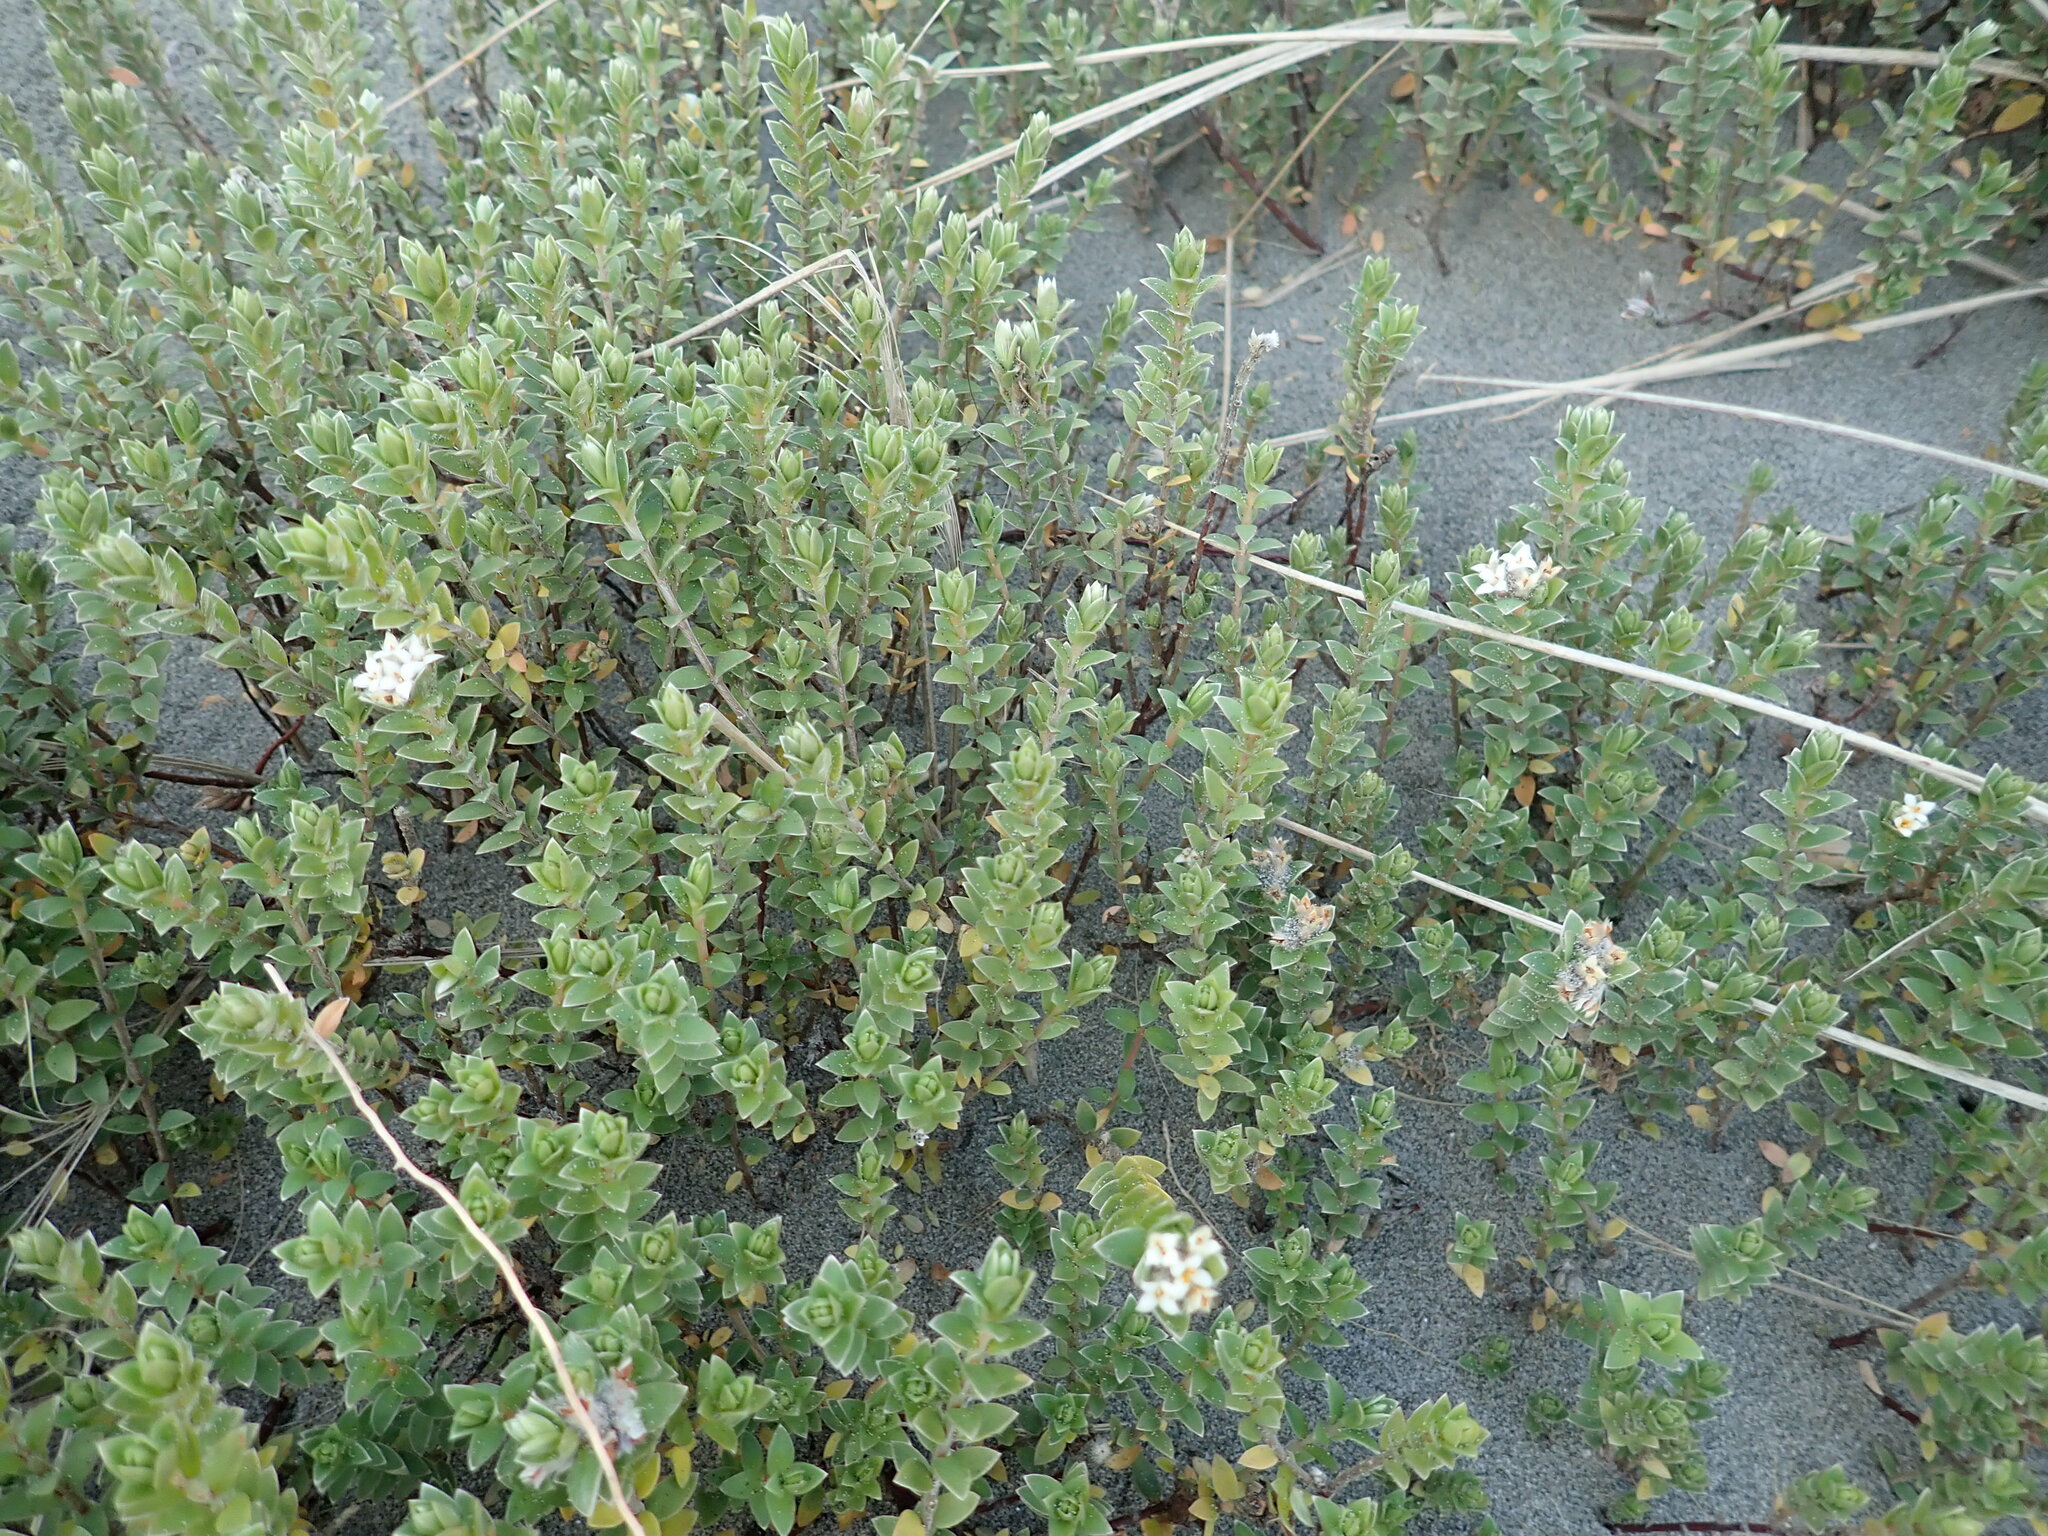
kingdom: Plantae
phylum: Tracheophyta
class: Magnoliopsida
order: Malvales
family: Thymelaeaceae
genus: Pimelea
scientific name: Pimelea villosa
